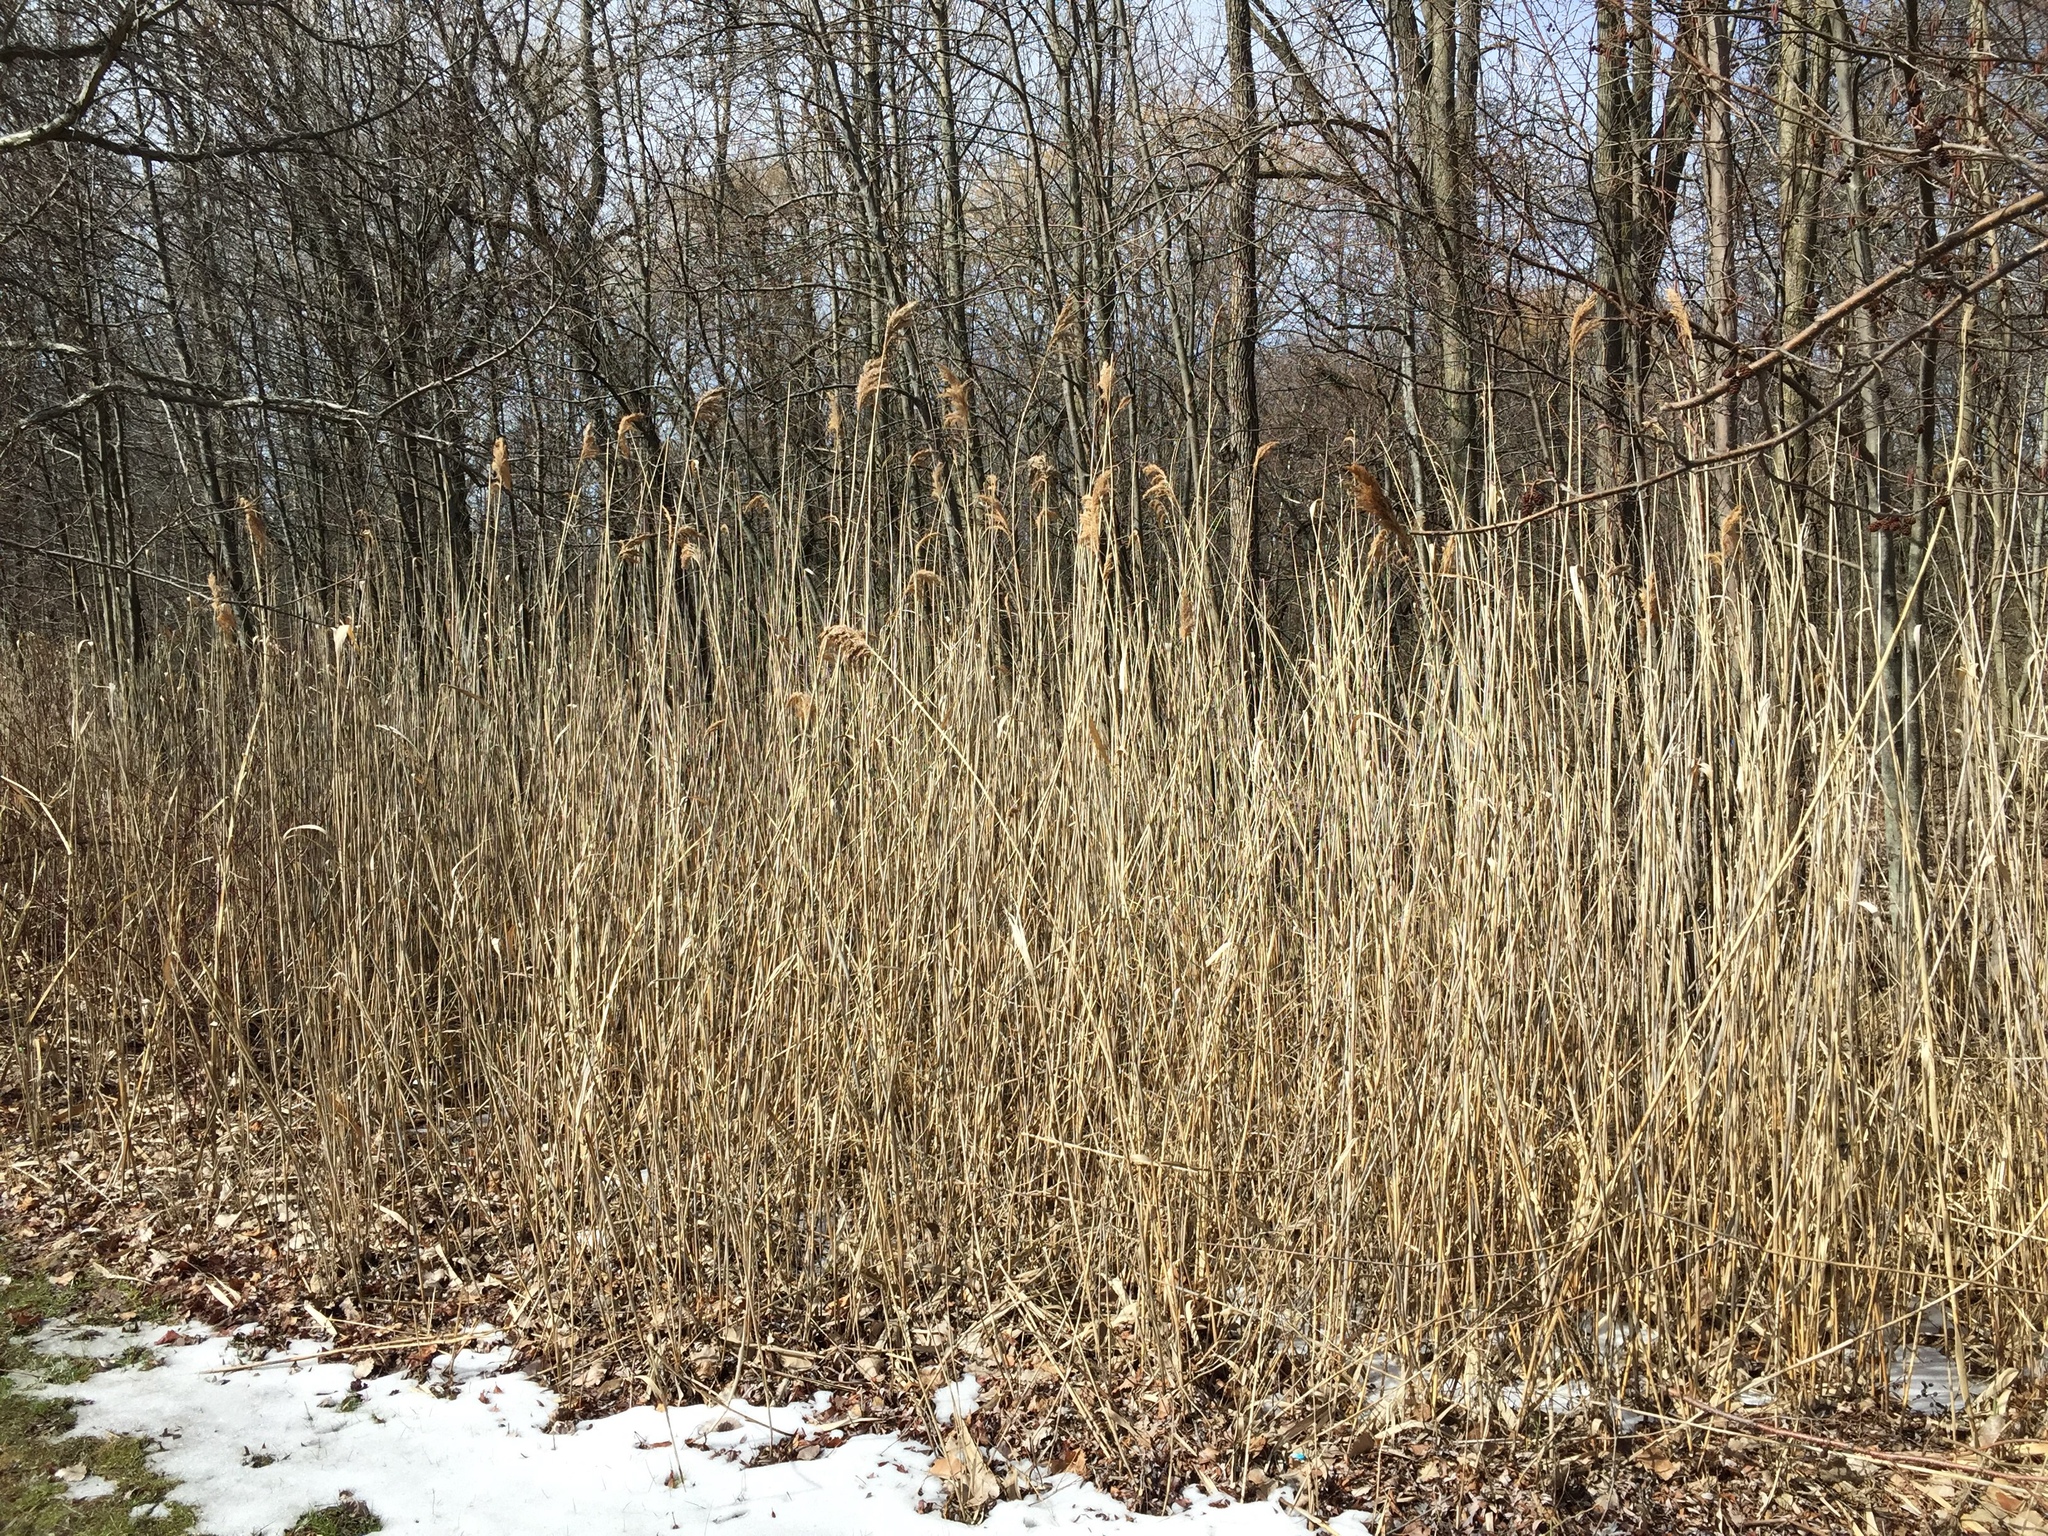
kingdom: Plantae
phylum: Tracheophyta
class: Liliopsida
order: Poales
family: Poaceae
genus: Phragmites
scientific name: Phragmites australis
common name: Common reed
